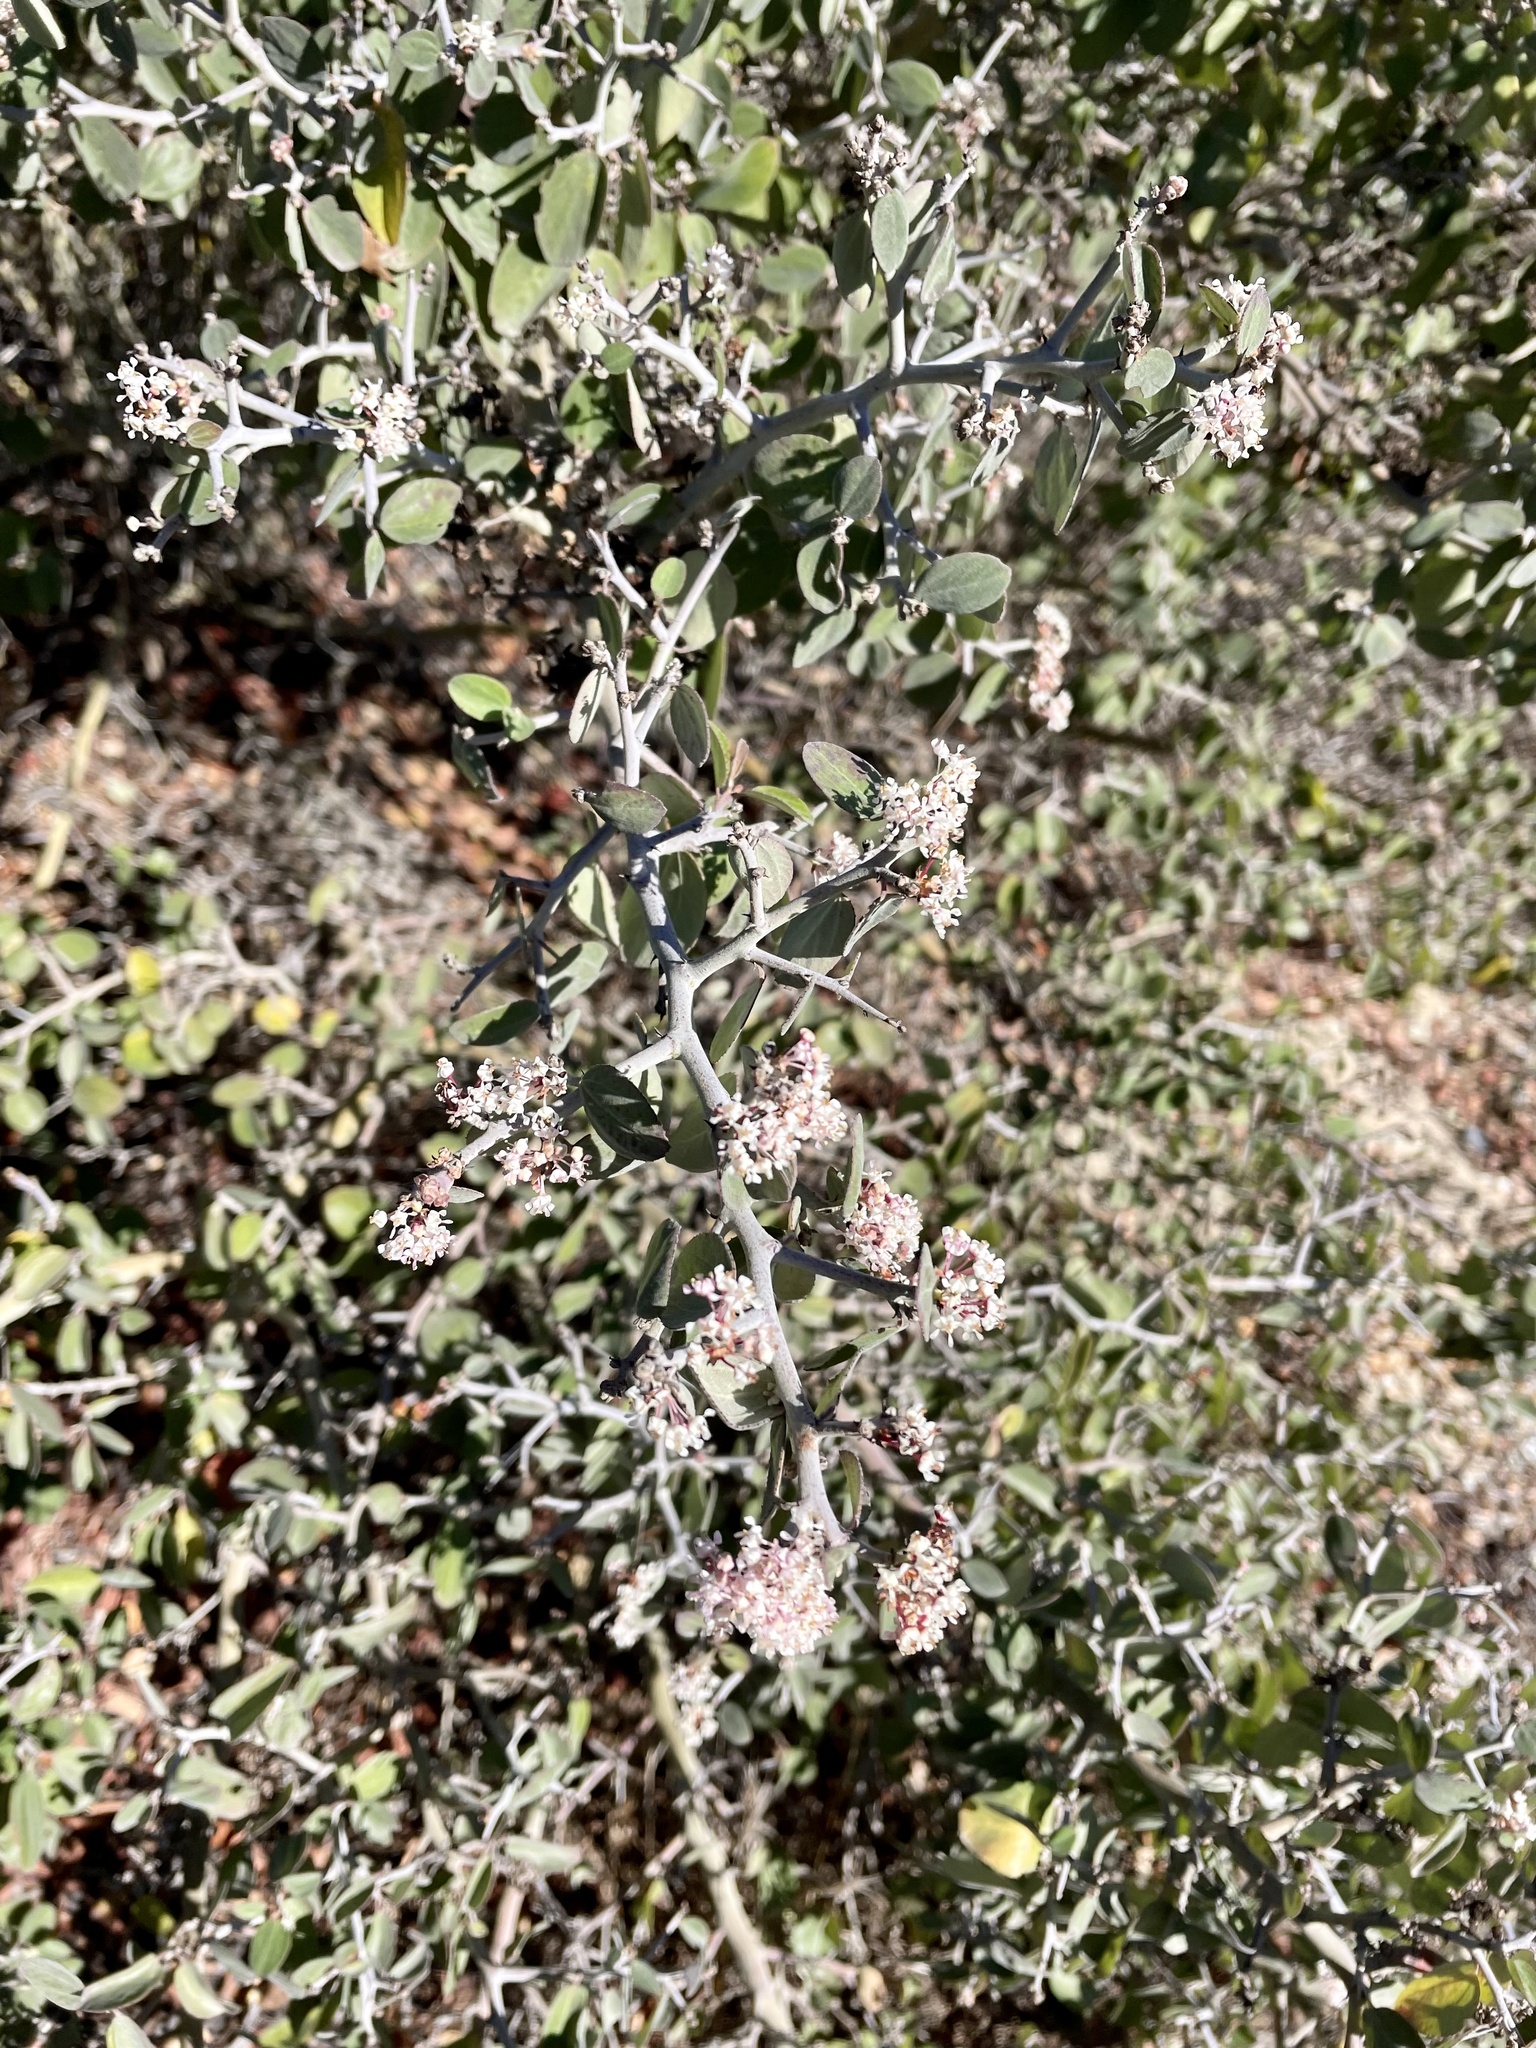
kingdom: Plantae
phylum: Tracheophyta
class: Magnoliopsida
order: Rosales
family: Rhamnaceae
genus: Ceanothus
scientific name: Ceanothus incanus
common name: Coast whitethorn
